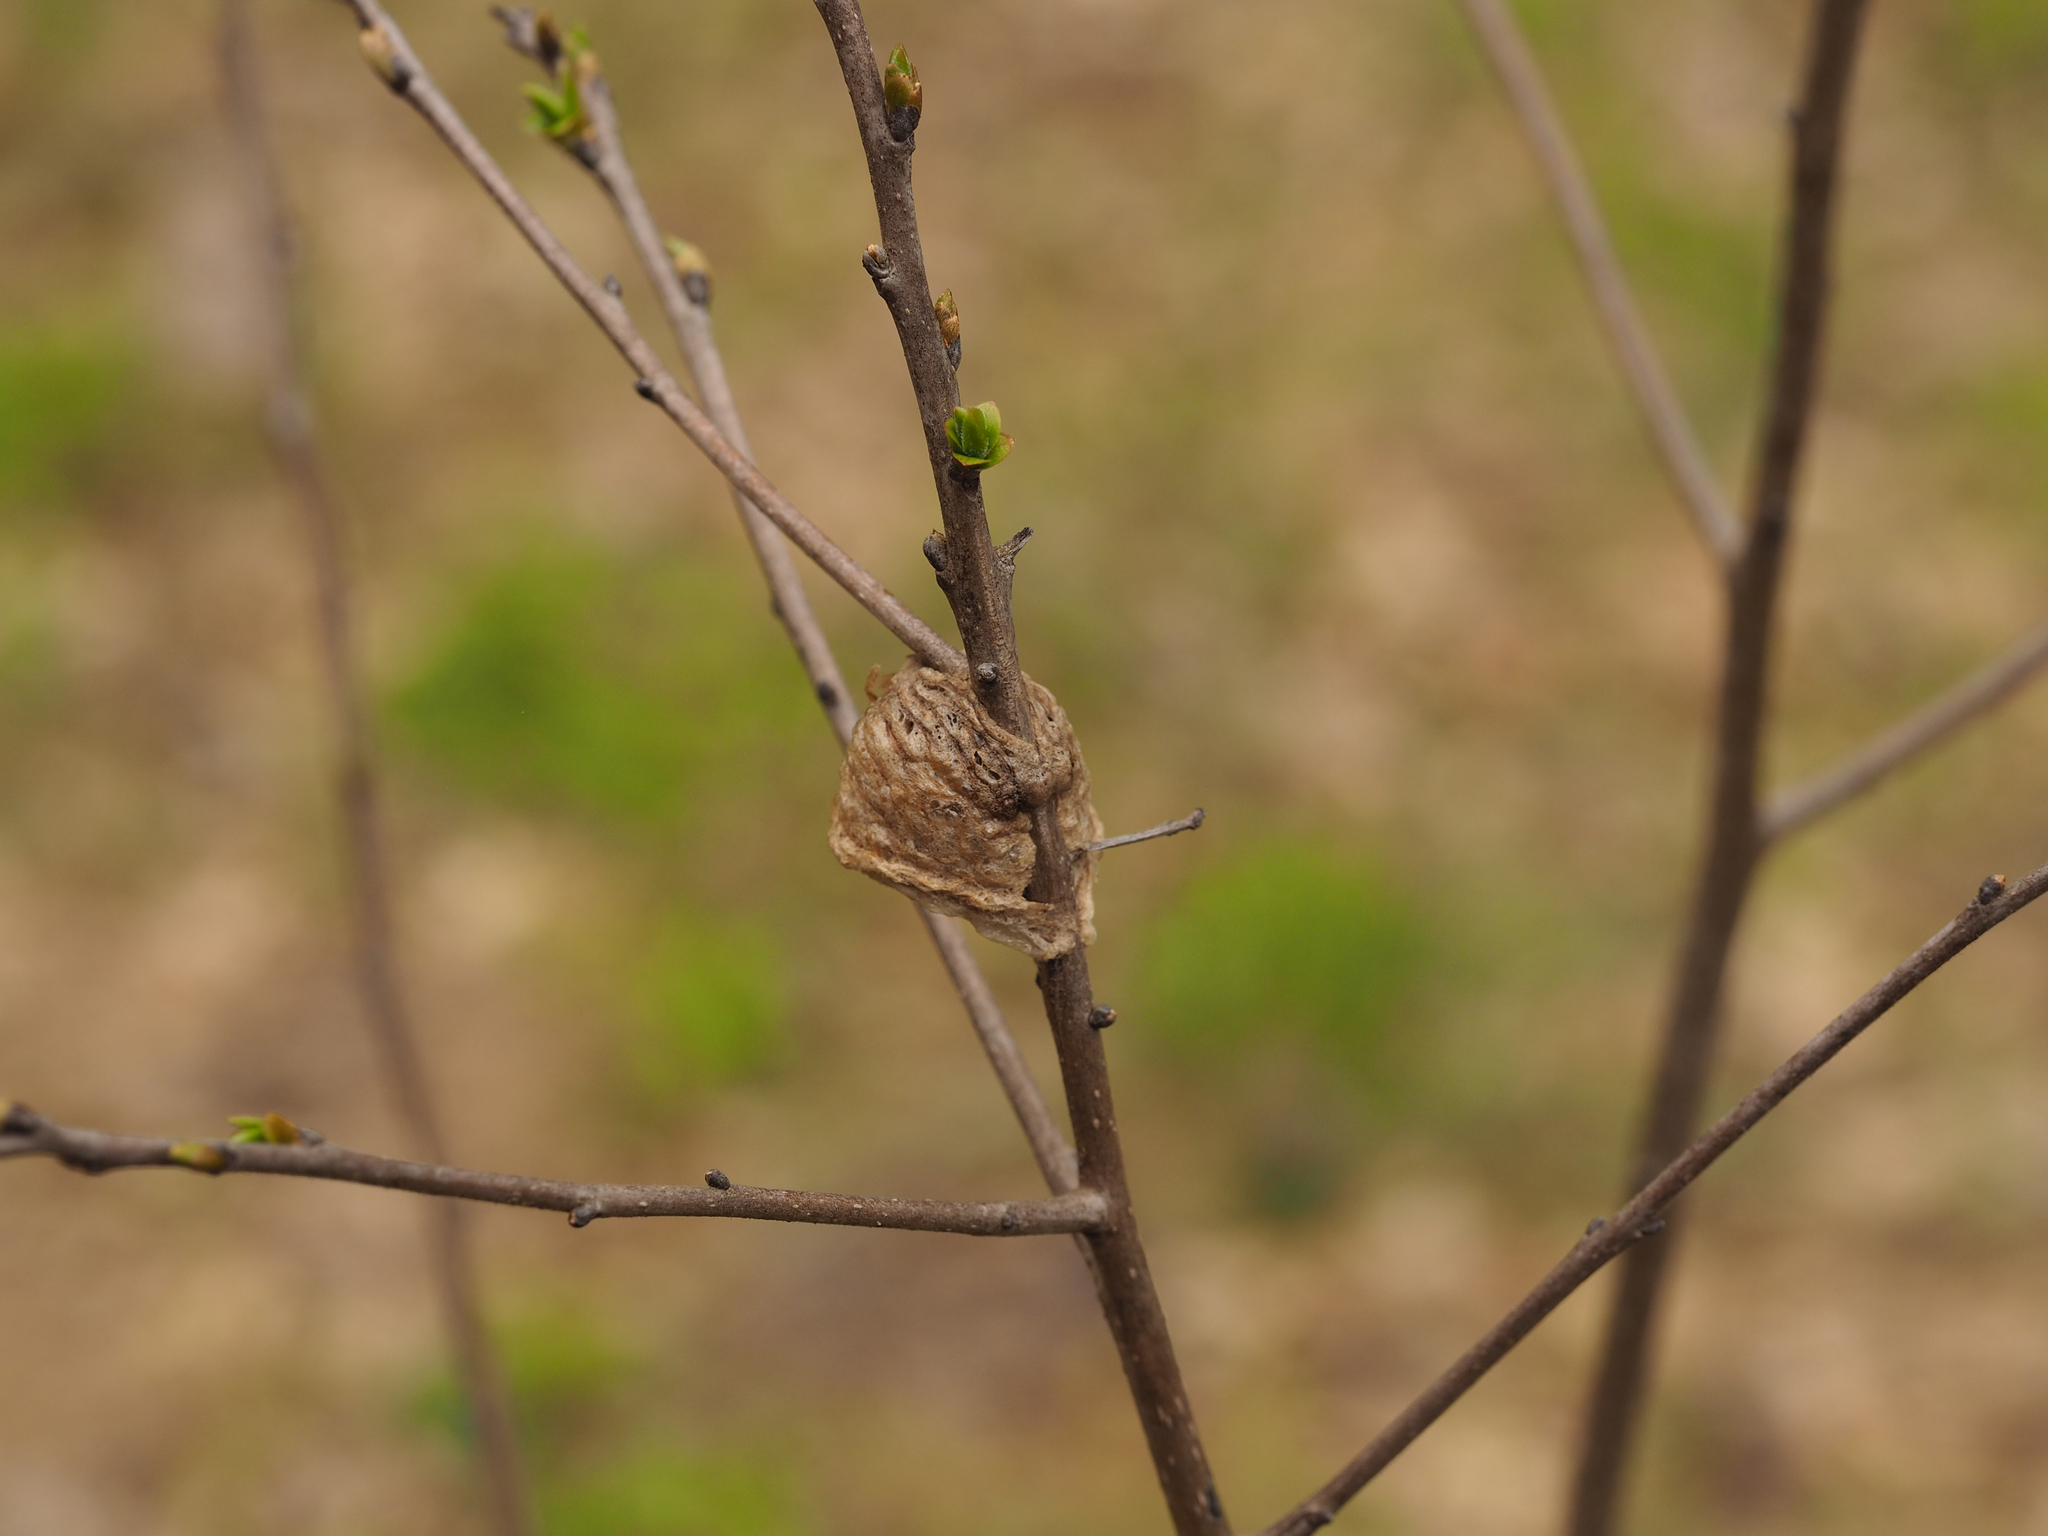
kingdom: Animalia
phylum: Arthropoda
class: Insecta
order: Mantodea
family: Mantidae
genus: Tenodera
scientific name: Tenodera sinensis
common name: Chinese mantis
